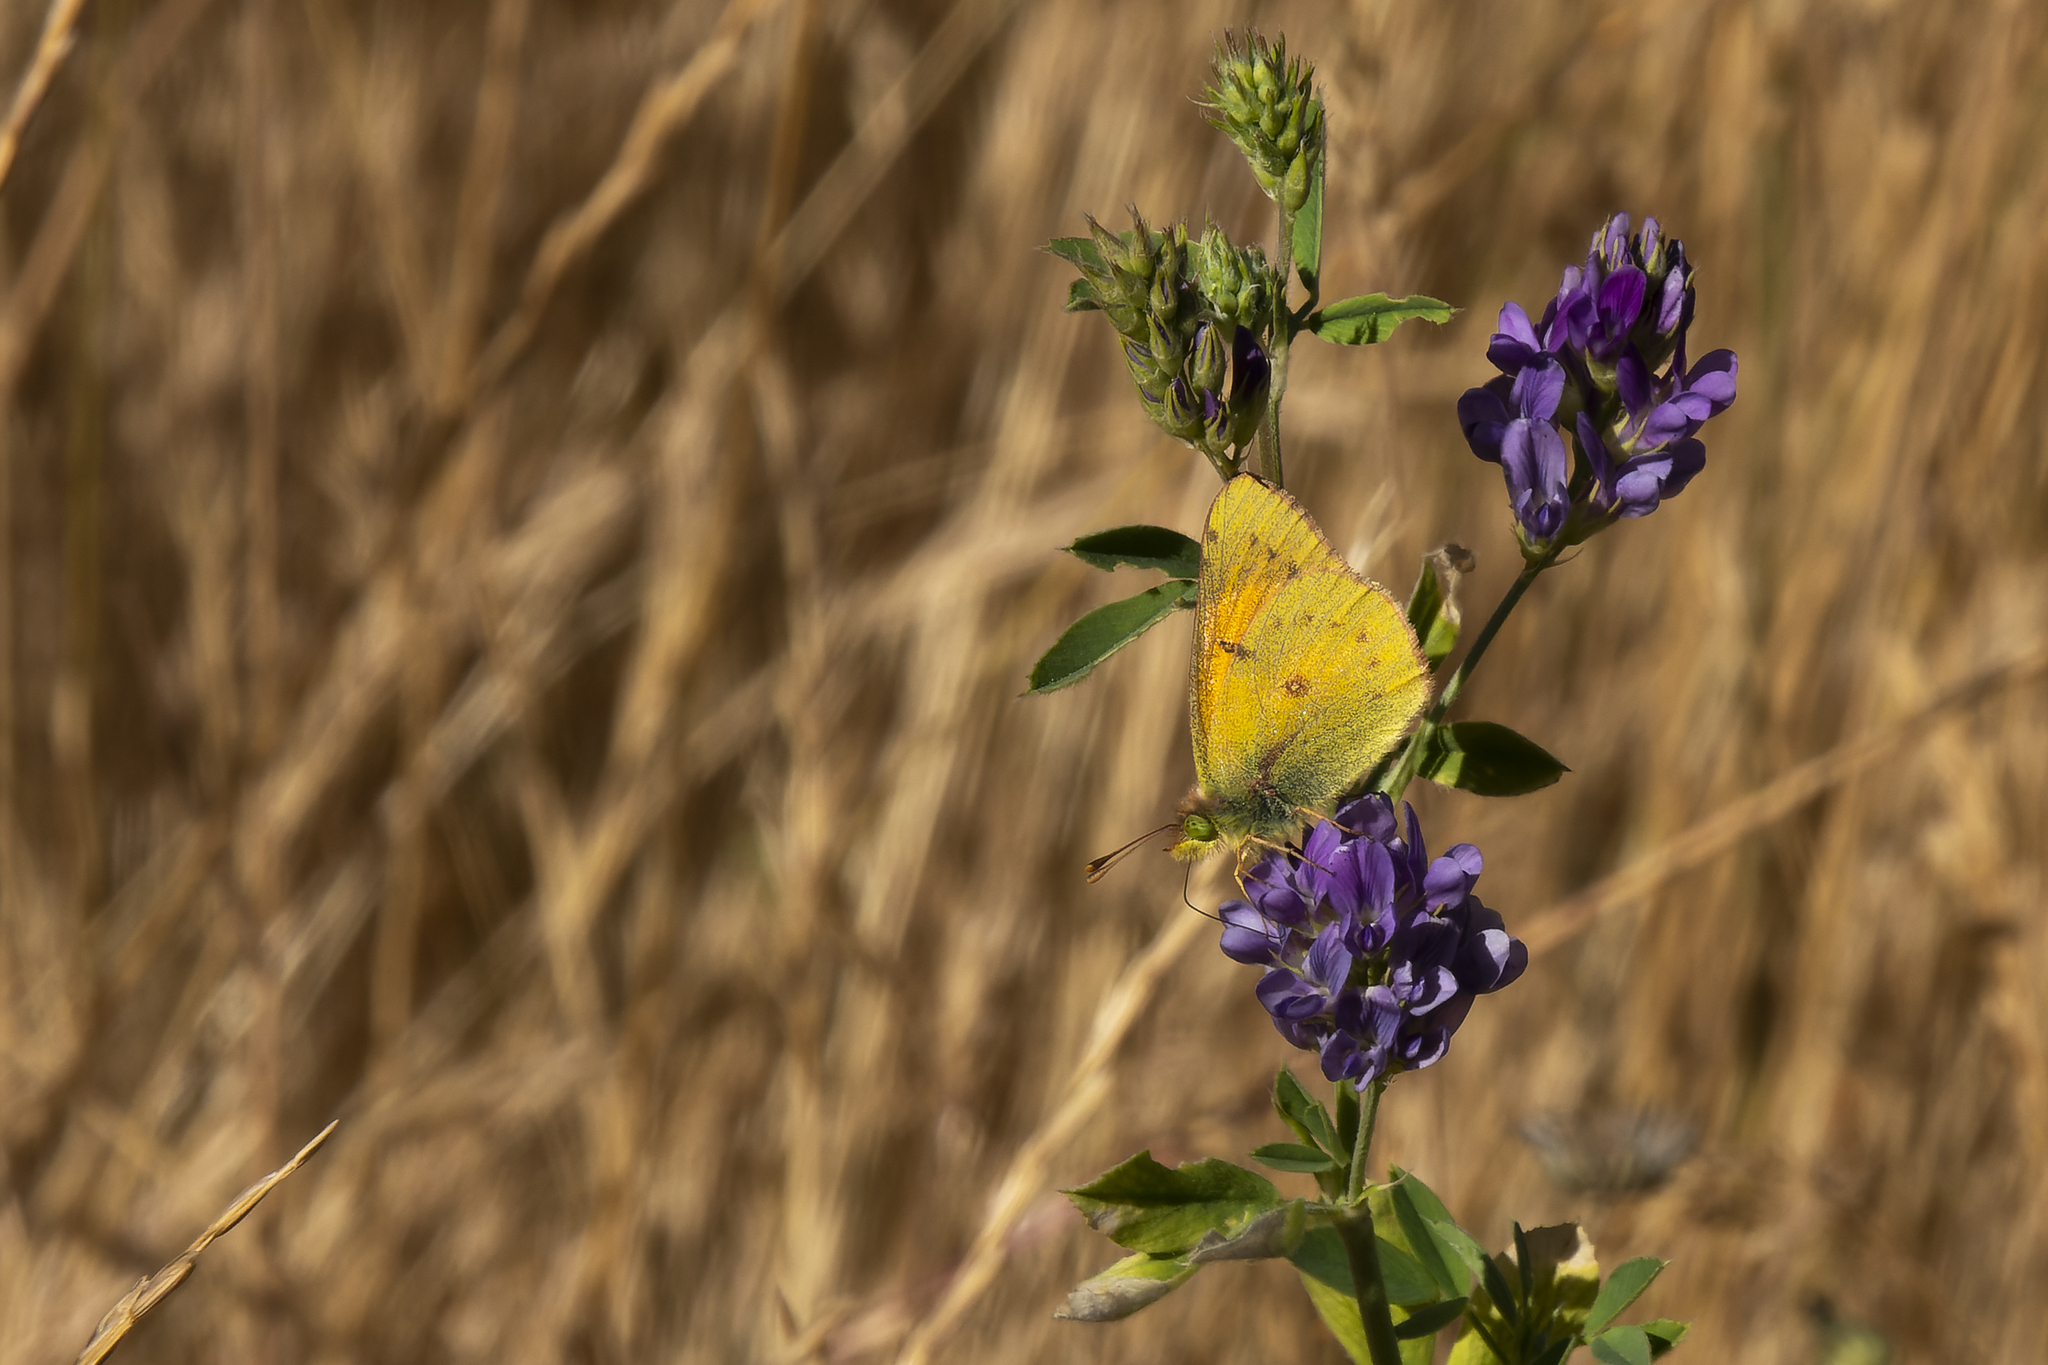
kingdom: Animalia
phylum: Arthropoda
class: Insecta
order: Lepidoptera
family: Pieridae
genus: Colias
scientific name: Colias vauthierii
